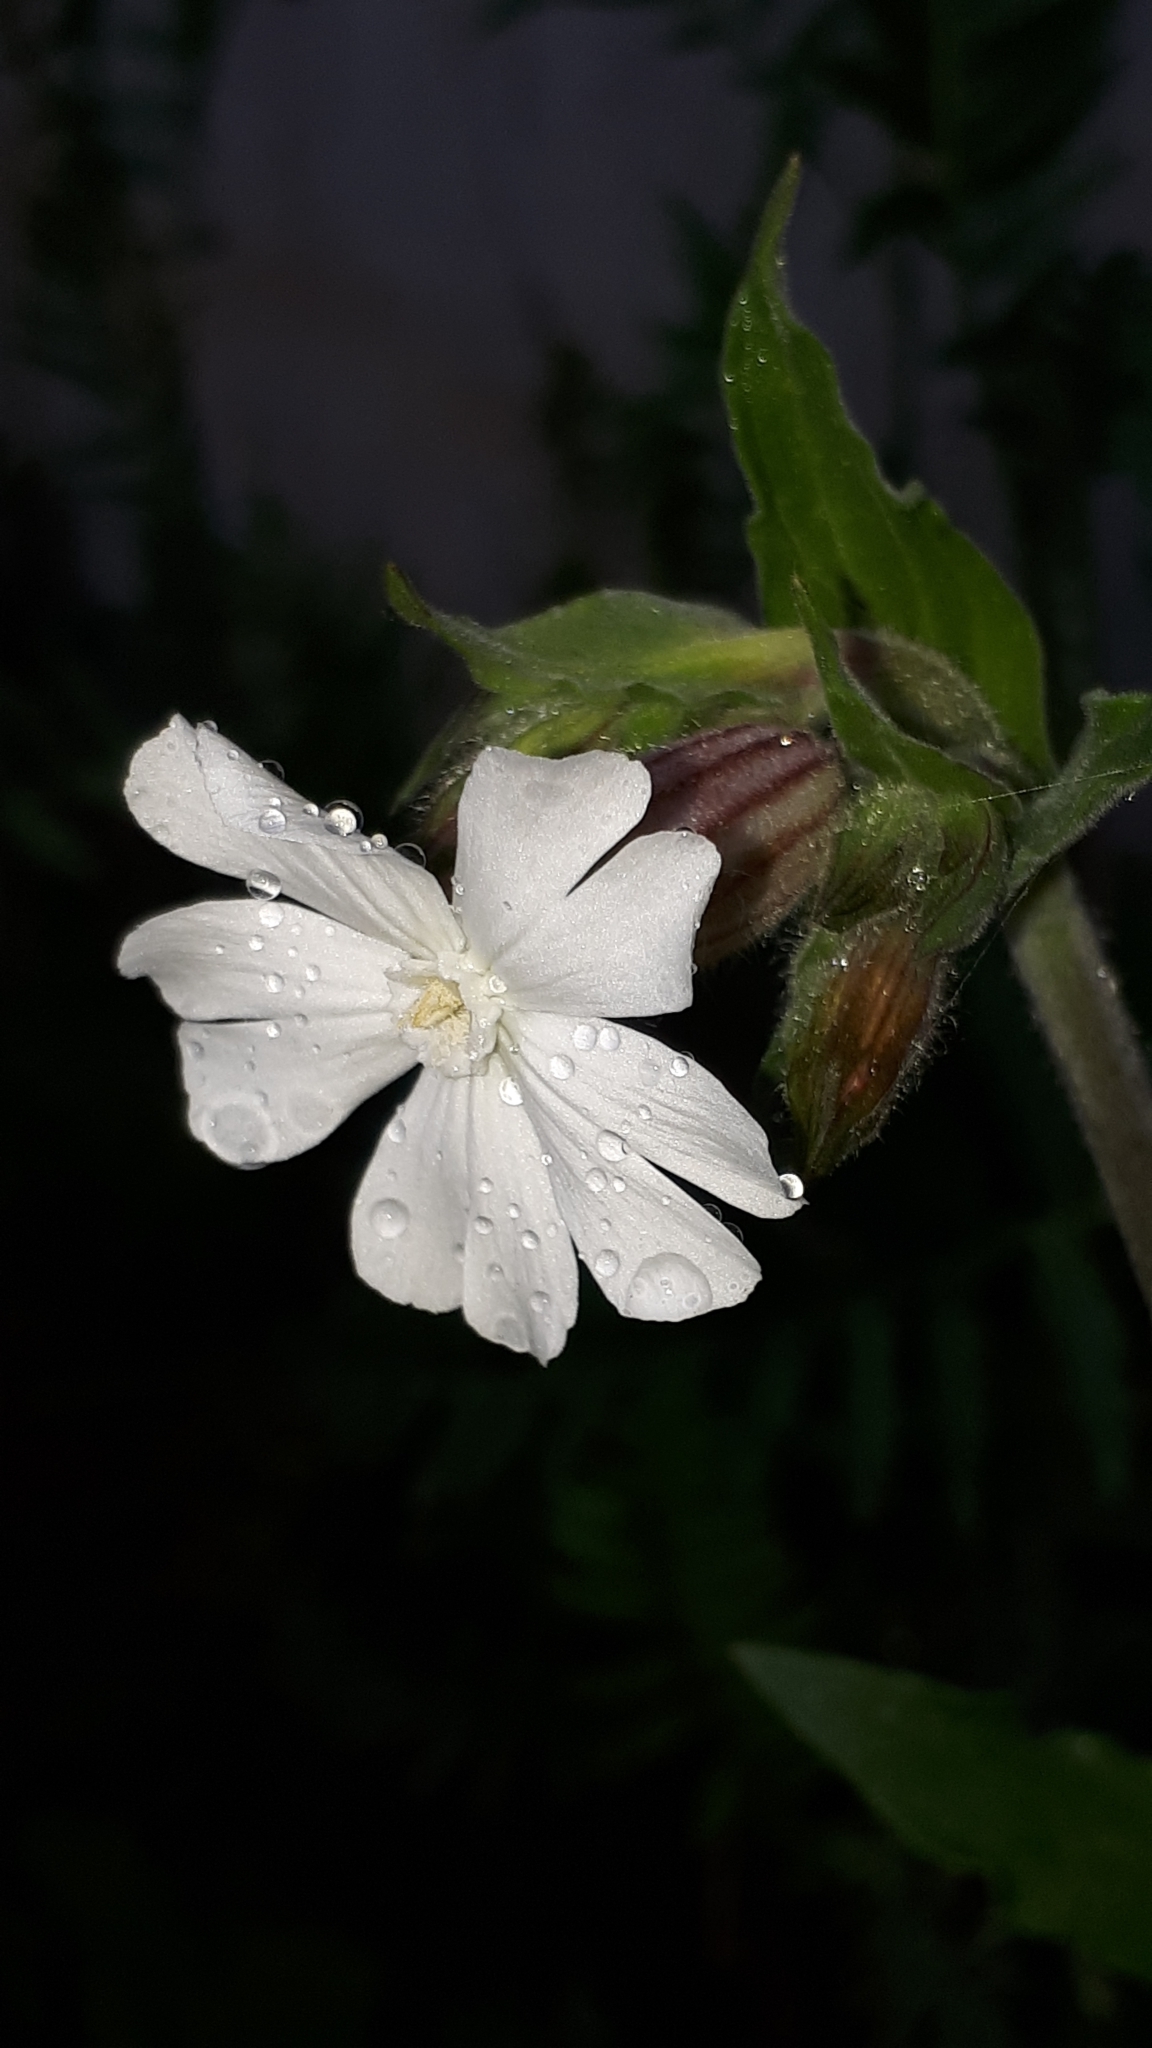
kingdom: Plantae
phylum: Tracheophyta
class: Magnoliopsida
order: Caryophyllales
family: Caryophyllaceae
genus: Silene
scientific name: Silene latifolia
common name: White campion
